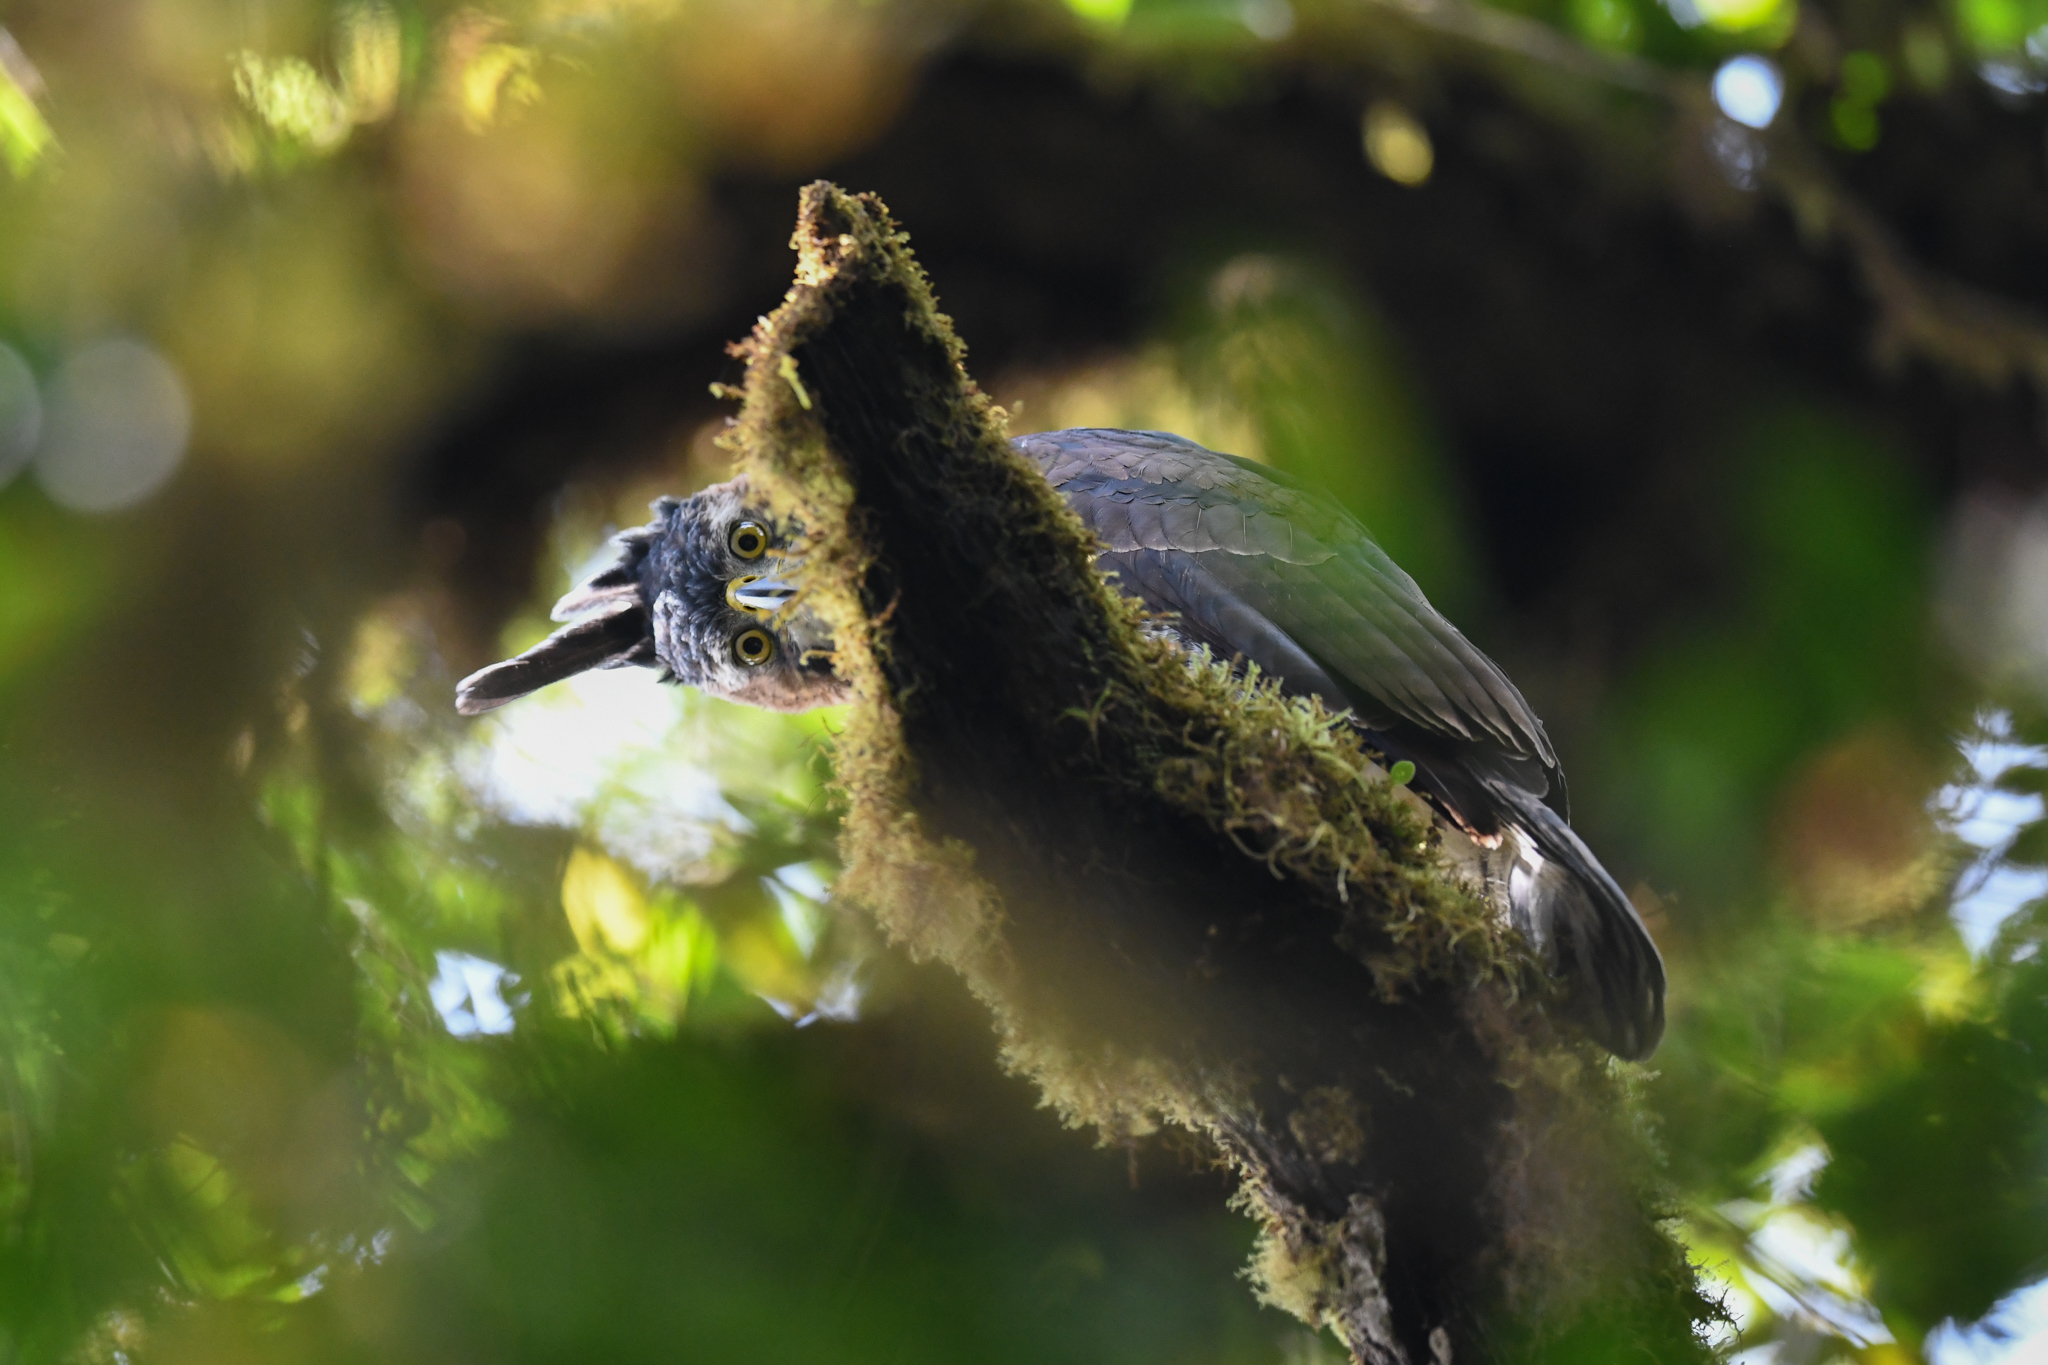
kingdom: Animalia
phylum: Chordata
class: Aves
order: Accipitriformes
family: Accipitridae
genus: Spizaetus
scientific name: Spizaetus ornatus
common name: Ornate hawk-eagle
